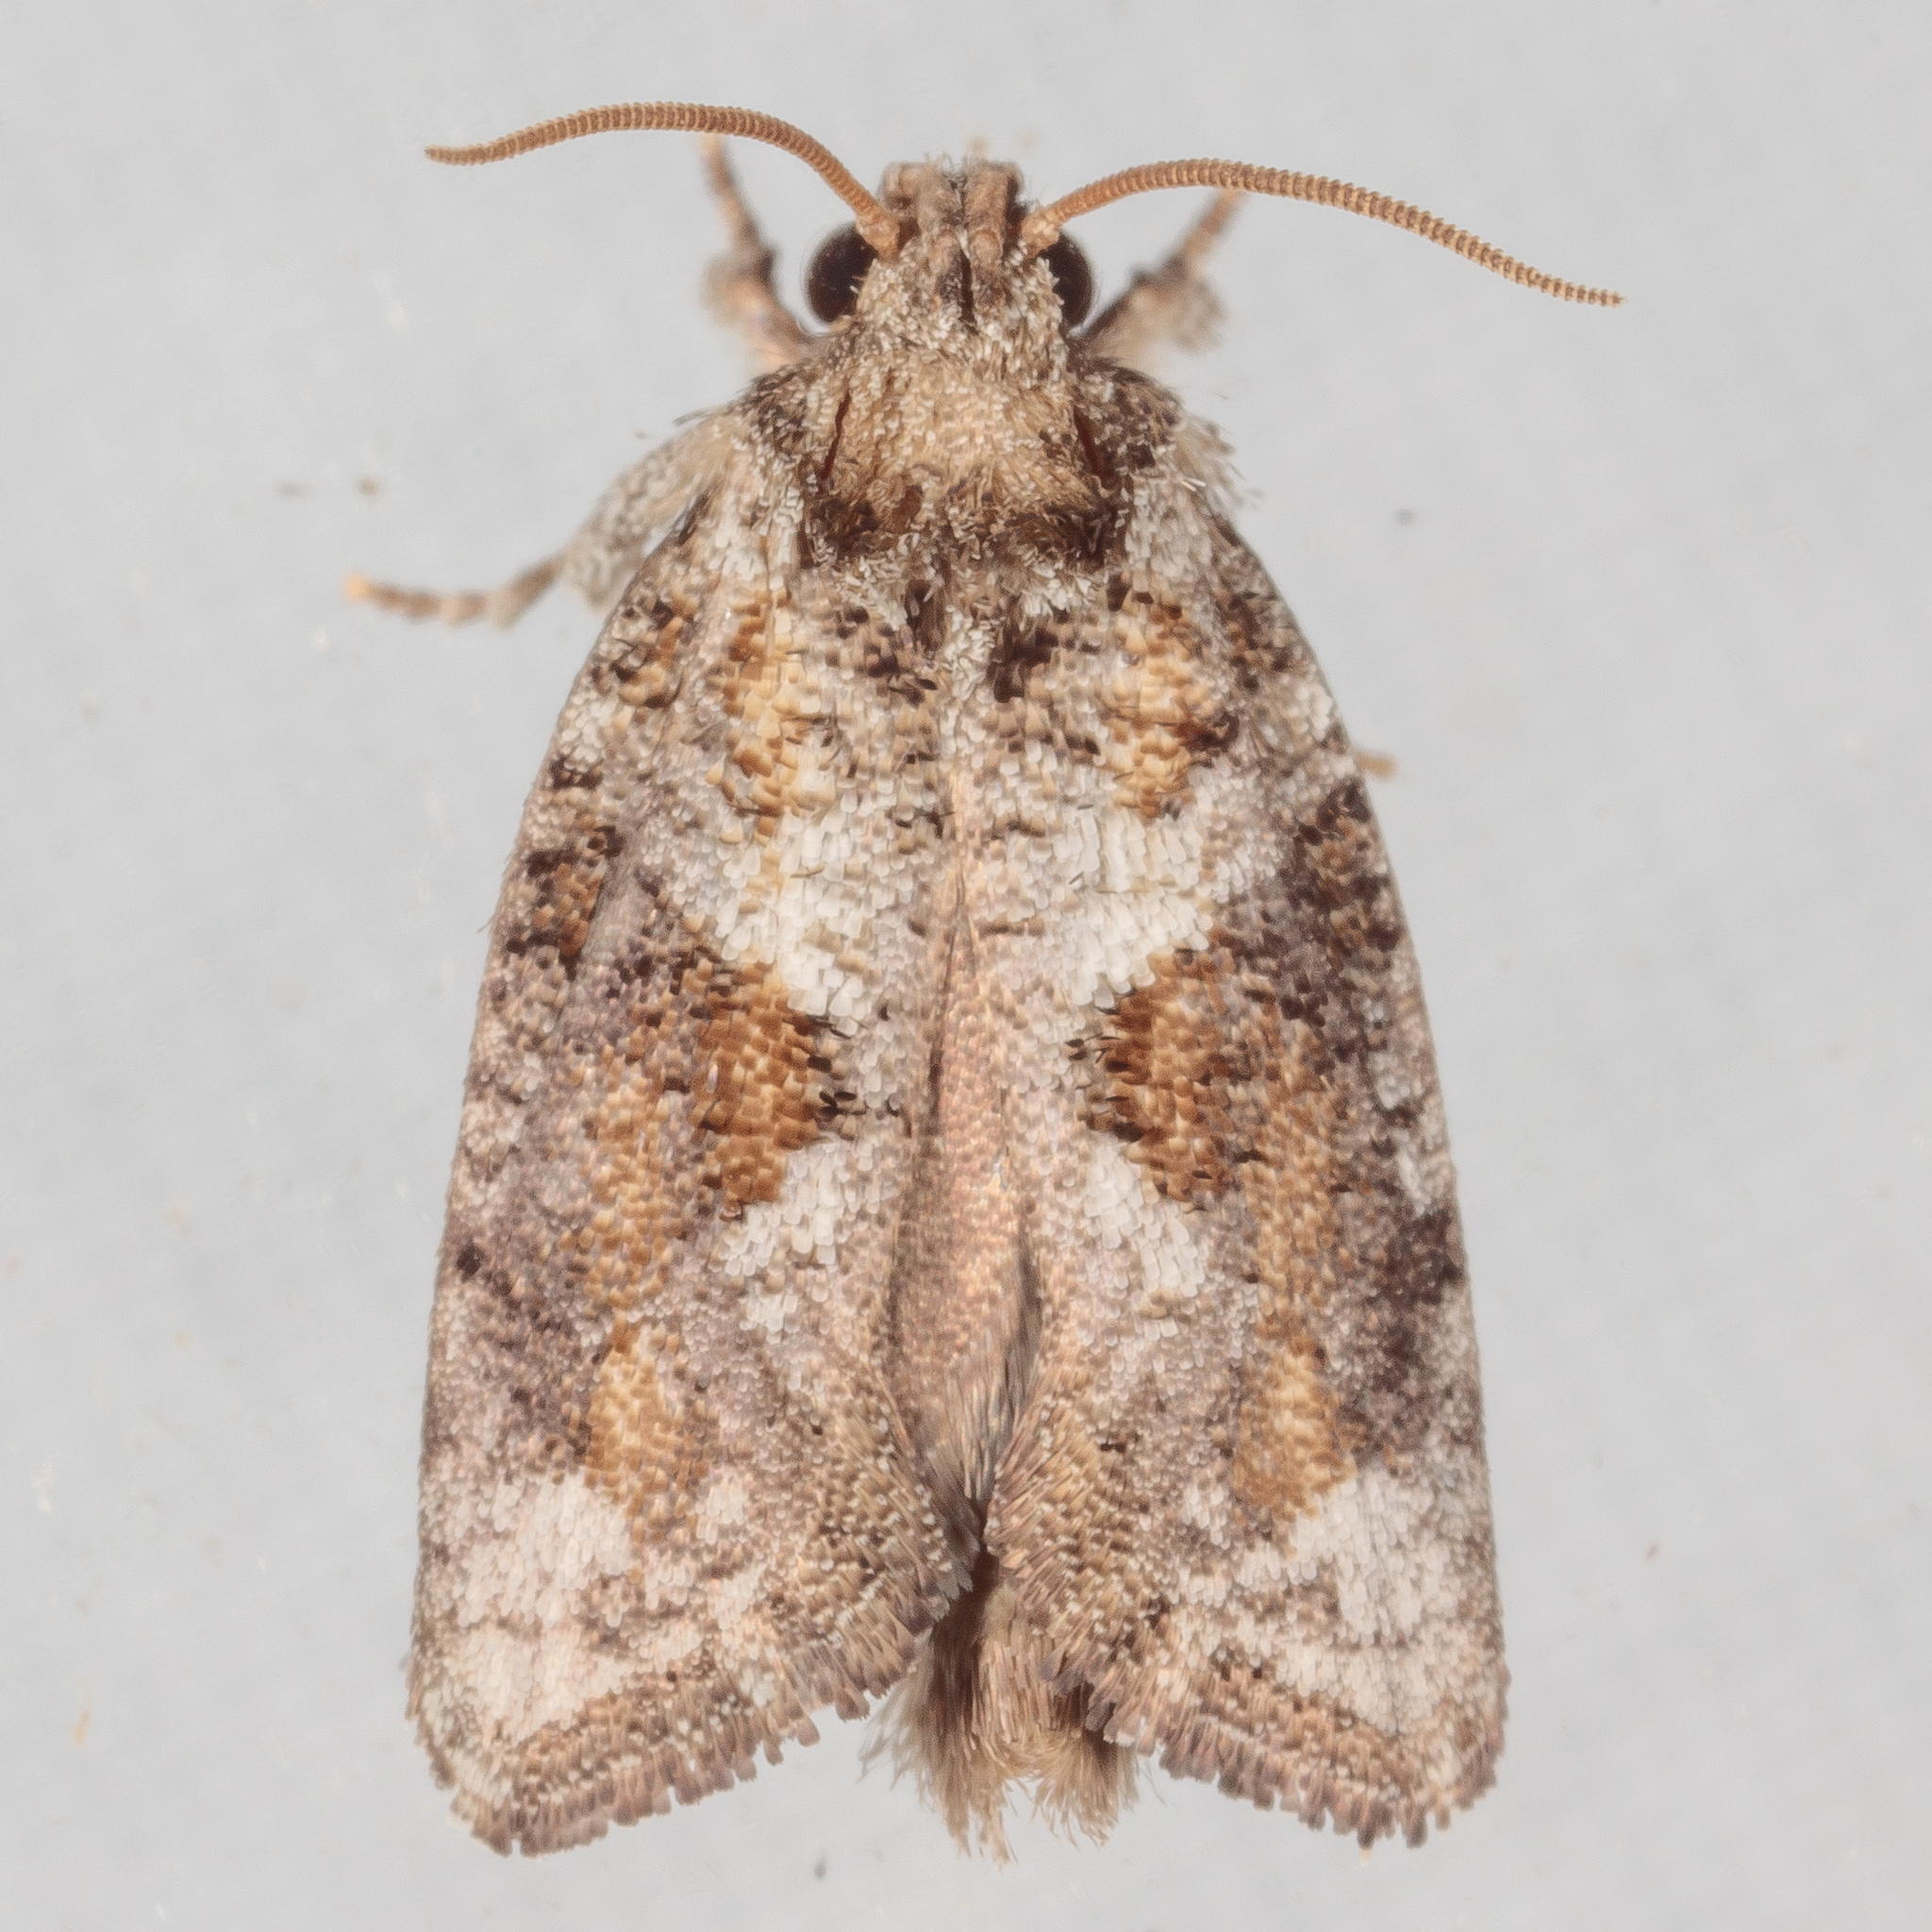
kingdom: Animalia
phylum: Arthropoda
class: Insecta
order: Lepidoptera
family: Tineidae
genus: Acrolophus
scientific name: Acrolophus piger
